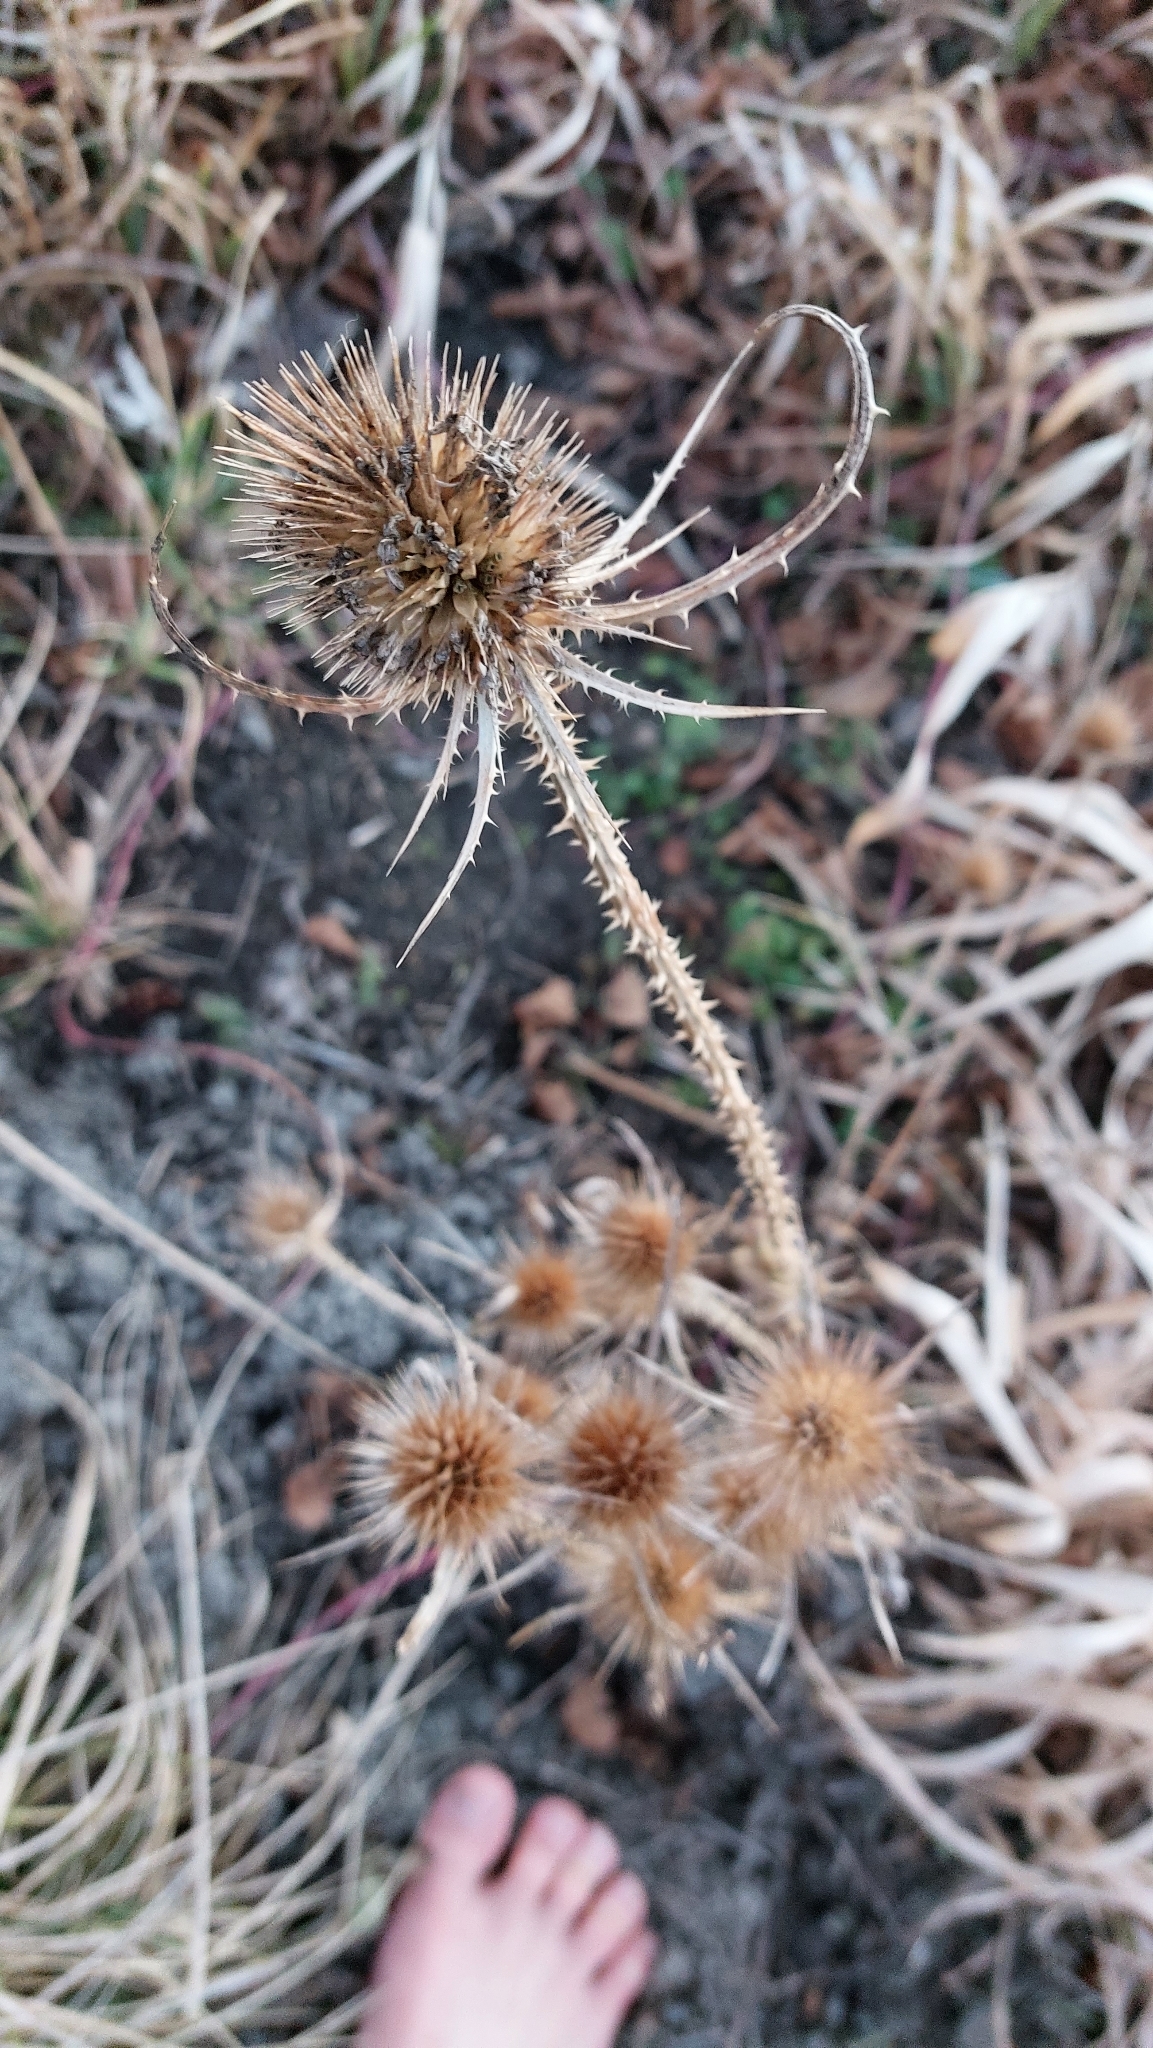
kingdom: Plantae
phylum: Tracheophyta
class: Magnoliopsida
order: Dipsacales
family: Caprifoliaceae
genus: Dipsacus
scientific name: Dipsacus fullonum
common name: Teasel
